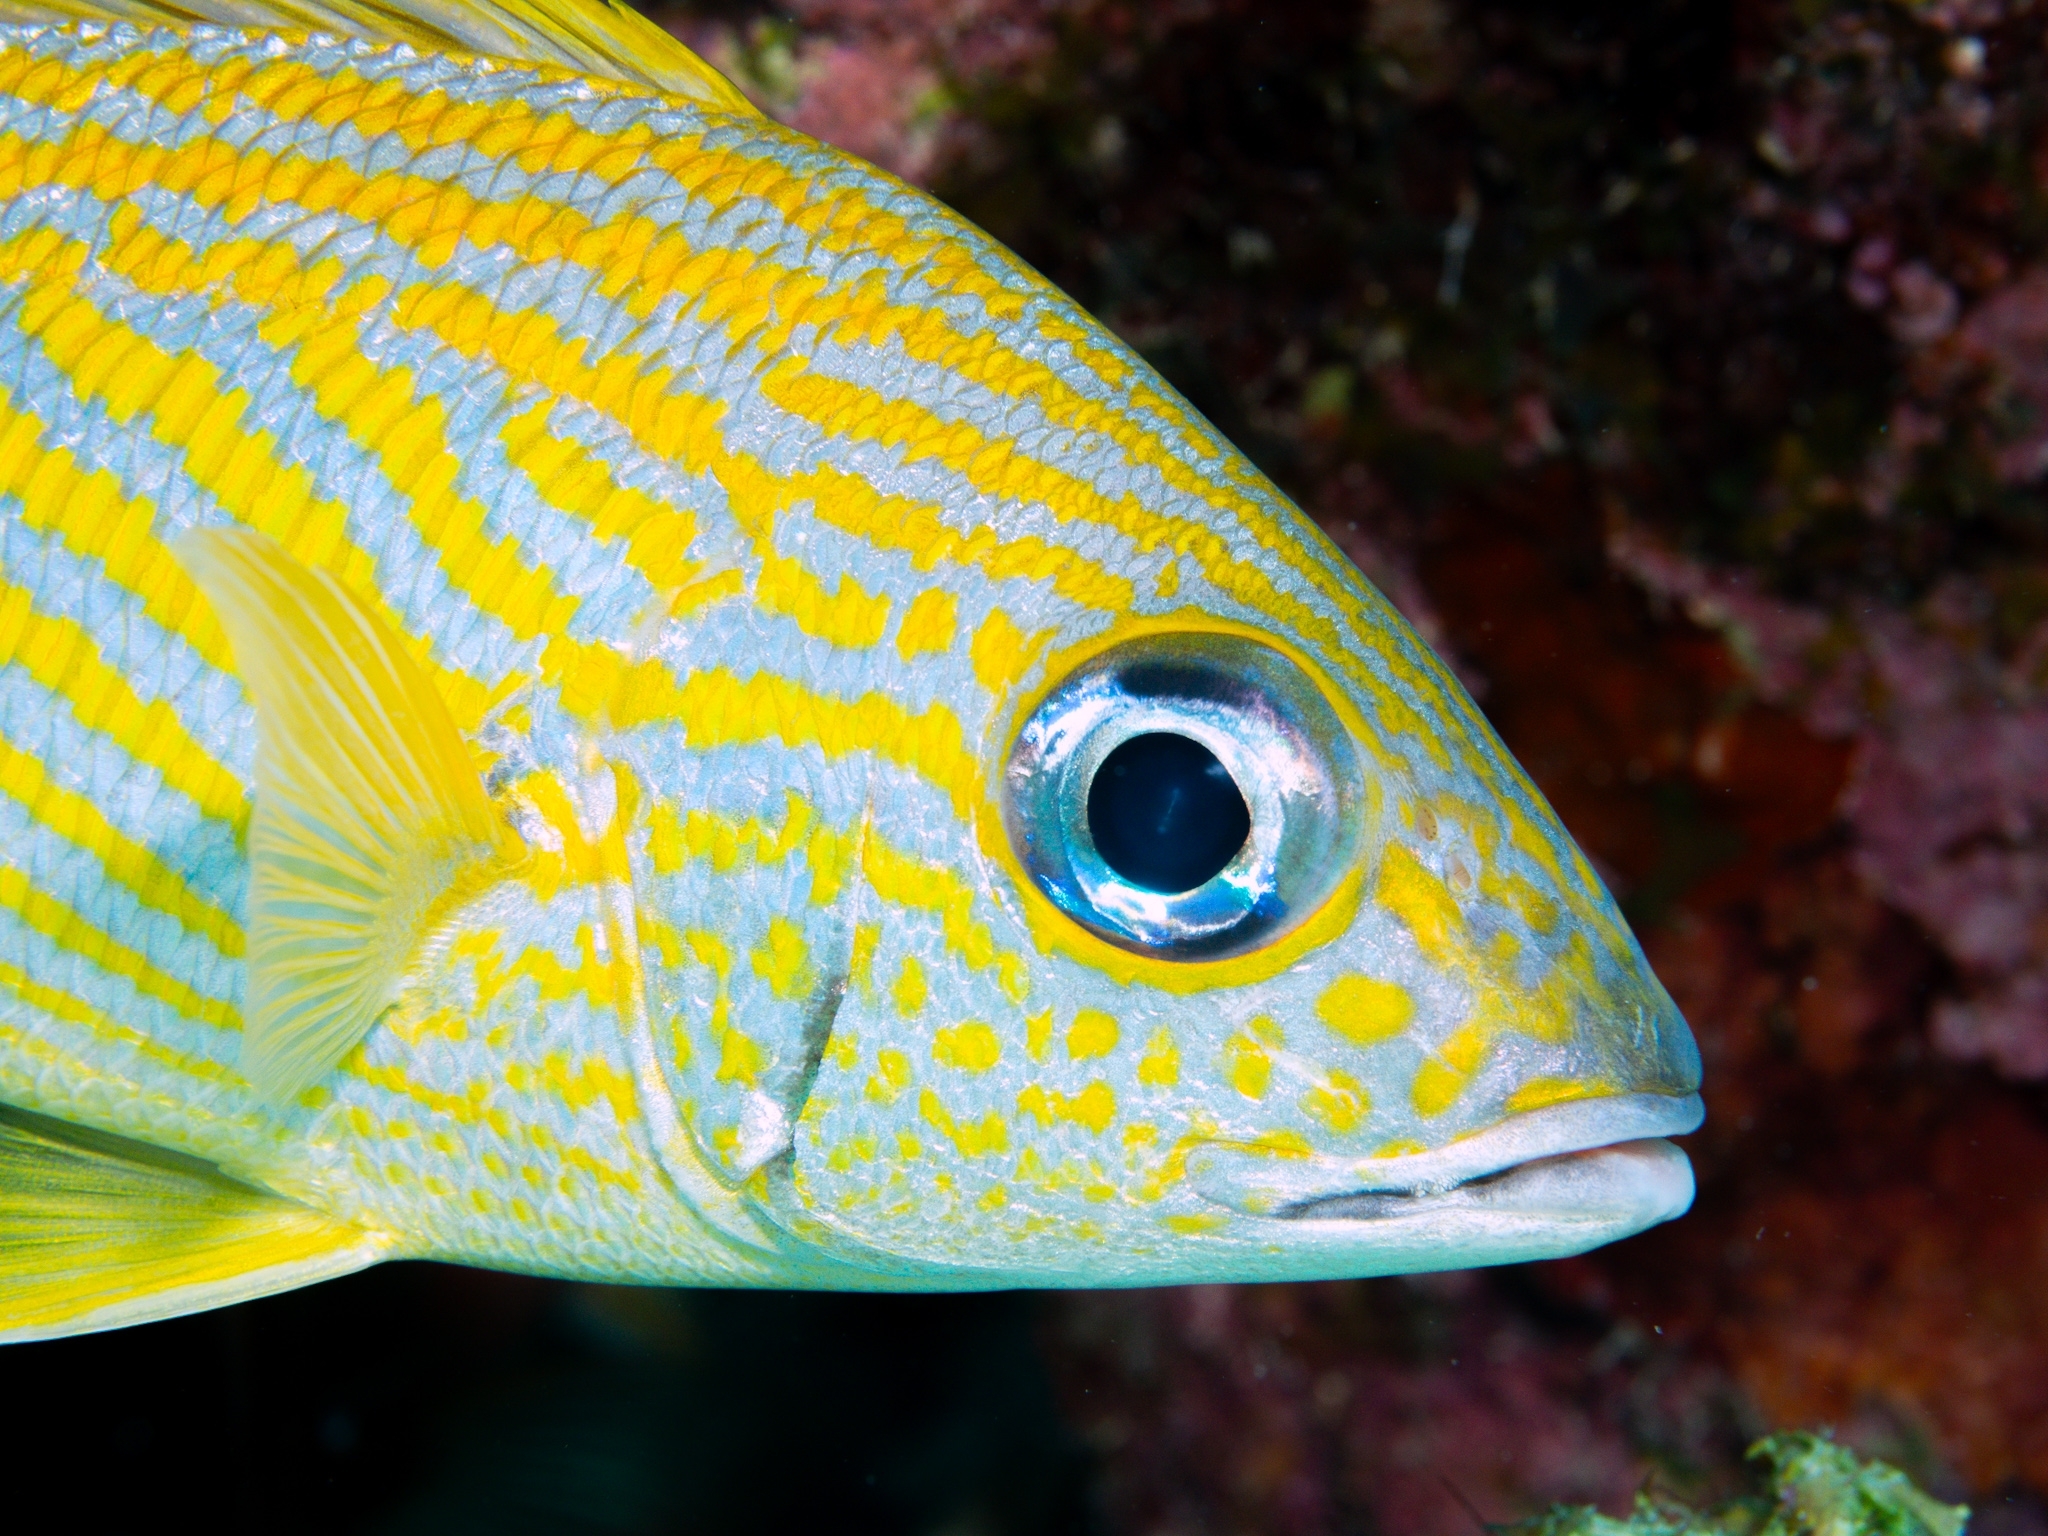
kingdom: Animalia
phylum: Chordata
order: Perciformes
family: Haemulidae
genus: Haemulon
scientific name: Haemulon flavolineatum
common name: French grunt
